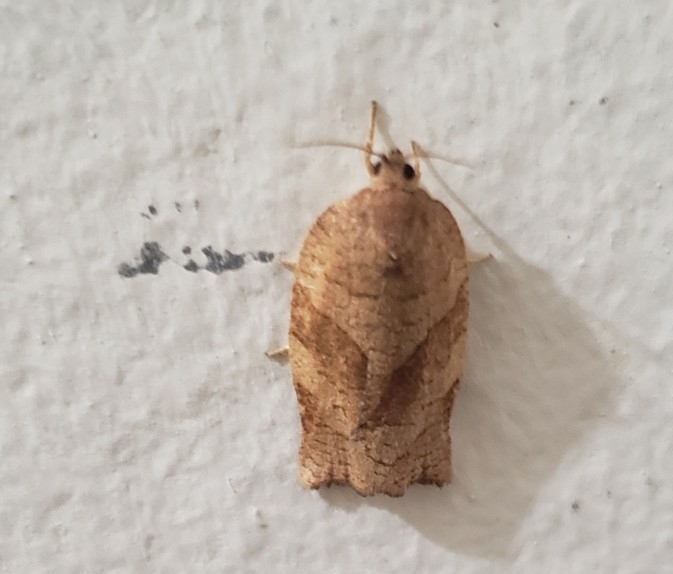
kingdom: Animalia
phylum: Arthropoda
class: Insecta
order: Lepidoptera
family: Tortricidae
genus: Choristoneura
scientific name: Choristoneura rosaceana
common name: Oblique-banded leafroller moth
